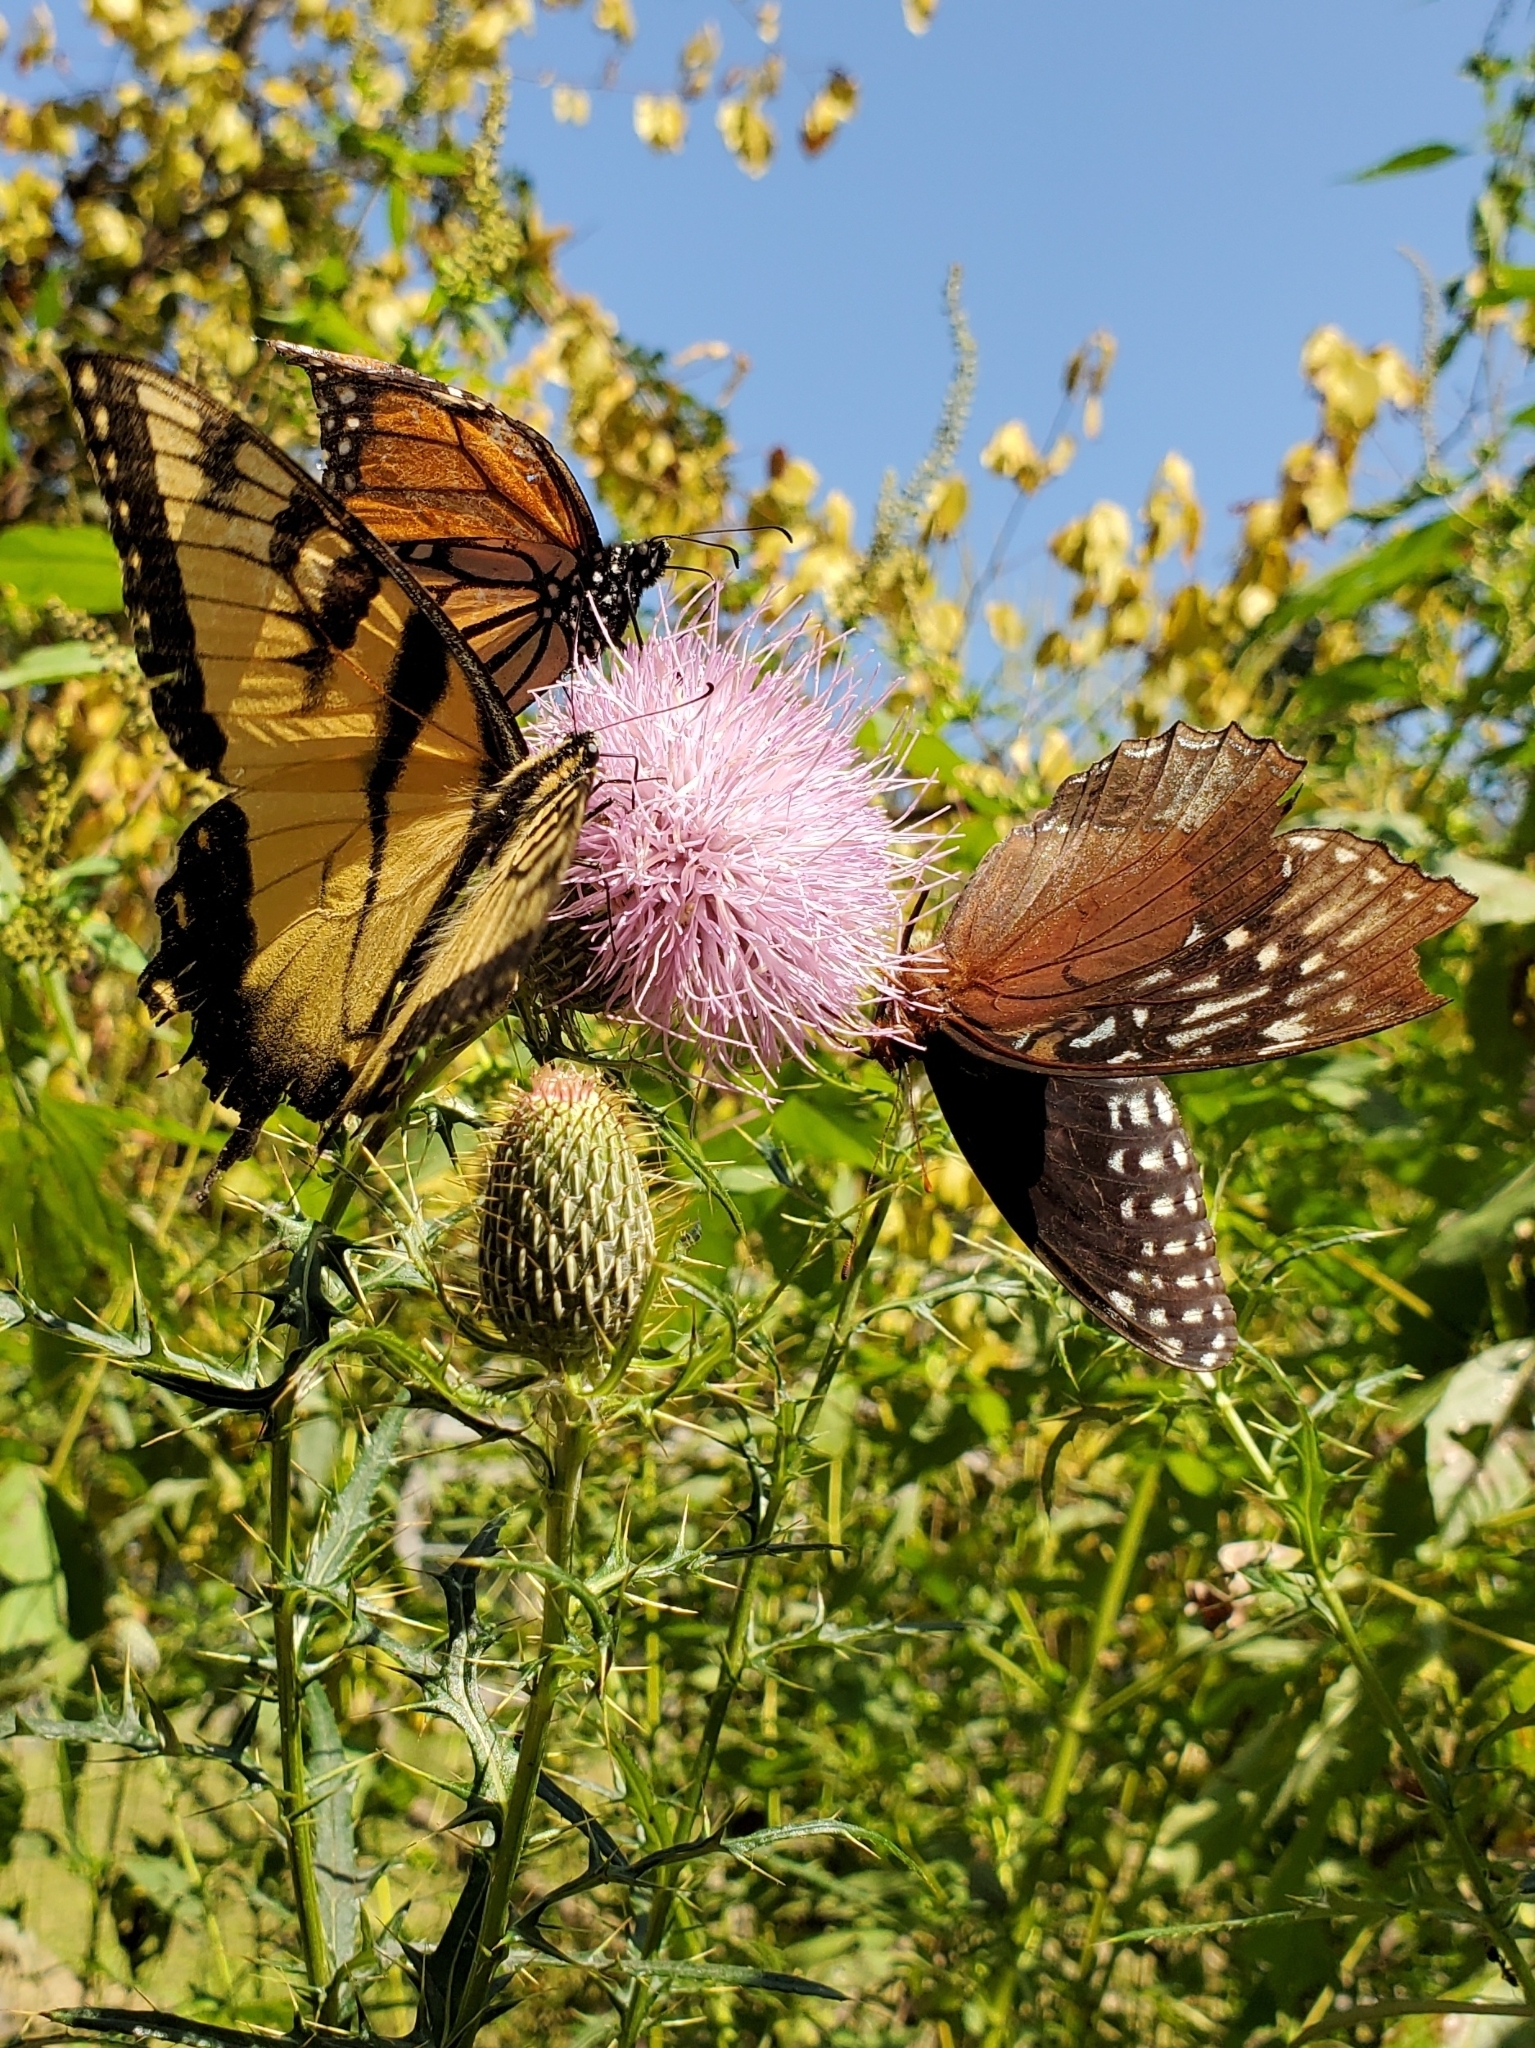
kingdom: Animalia
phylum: Arthropoda
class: Insecta
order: Lepidoptera
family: Nymphalidae
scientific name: Nymphalidae
